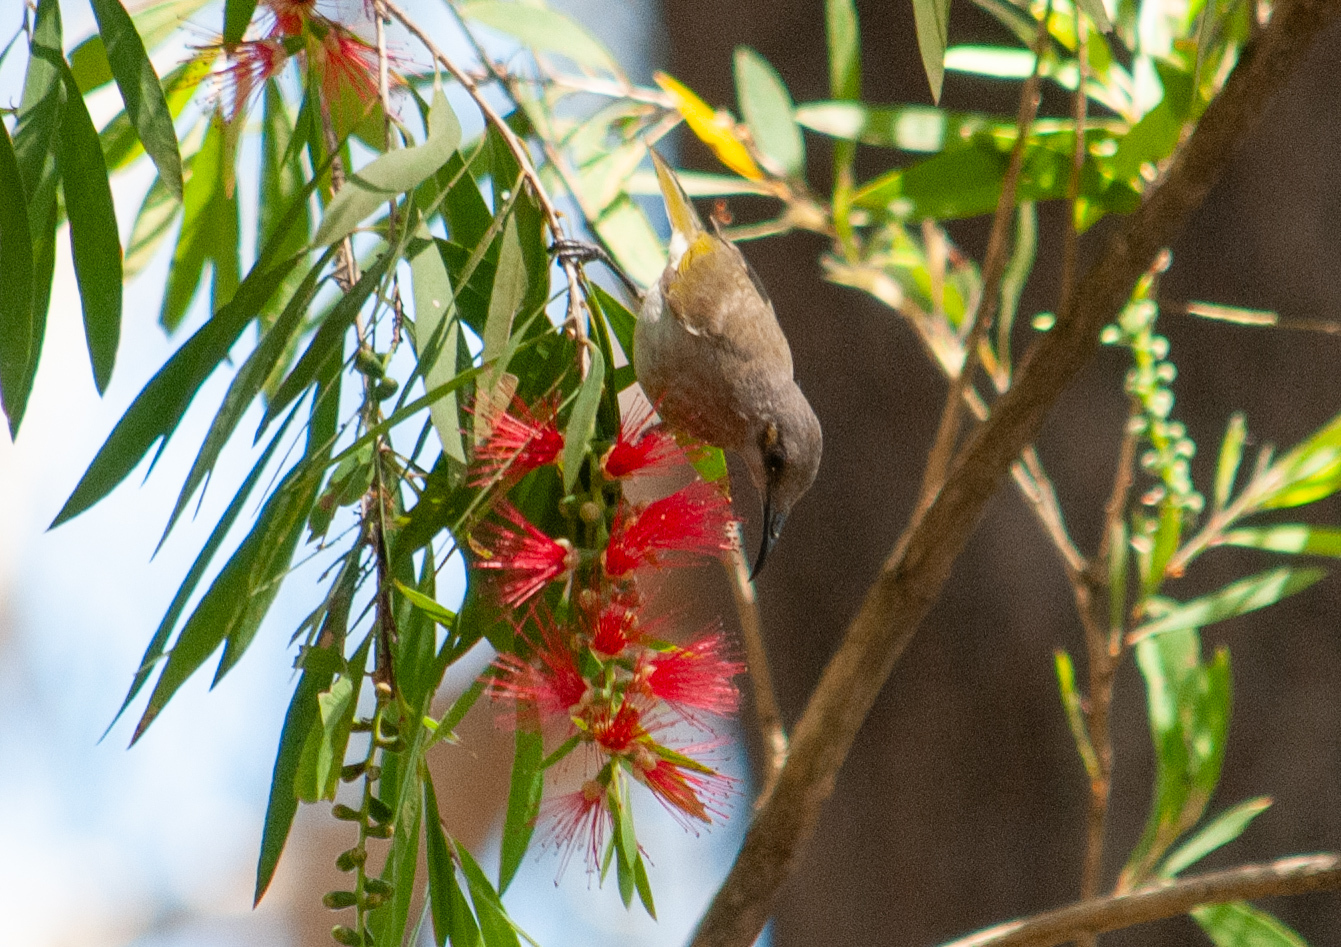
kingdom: Animalia
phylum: Chordata
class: Aves
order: Passeriformes
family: Meliphagidae
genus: Lichmera
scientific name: Lichmera indistincta
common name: Brown honeyeater
